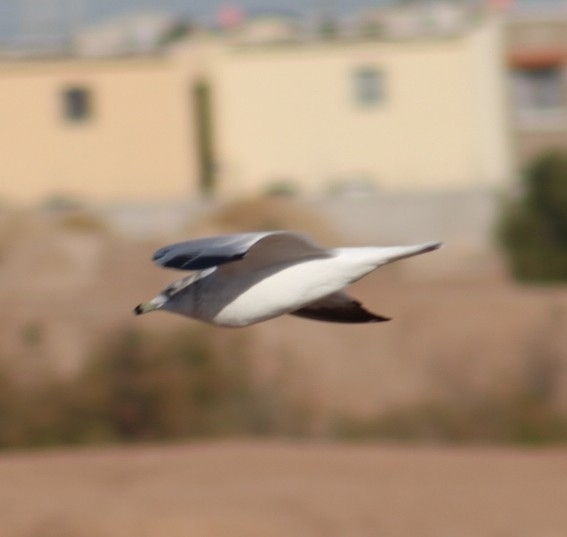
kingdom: Animalia
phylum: Chordata
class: Aves
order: Charadriiformes
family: Laridae
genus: Larus
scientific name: Larus delawarensis
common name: Ring-billed gull
